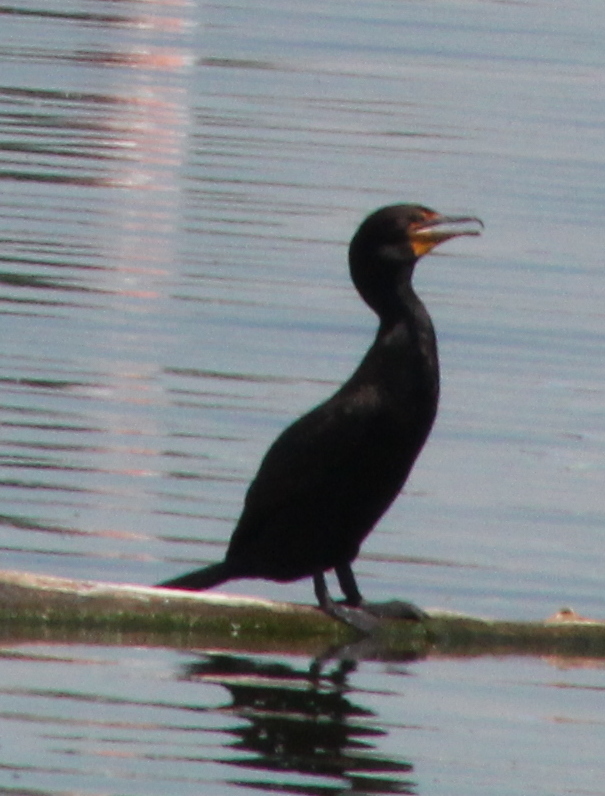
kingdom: Animalia
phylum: Chordata
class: Aves
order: Suliformes
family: Phalacrocoracidae
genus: Phalacrocorax
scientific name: Phalacrocorax auritus
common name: Double-crested cormorant
